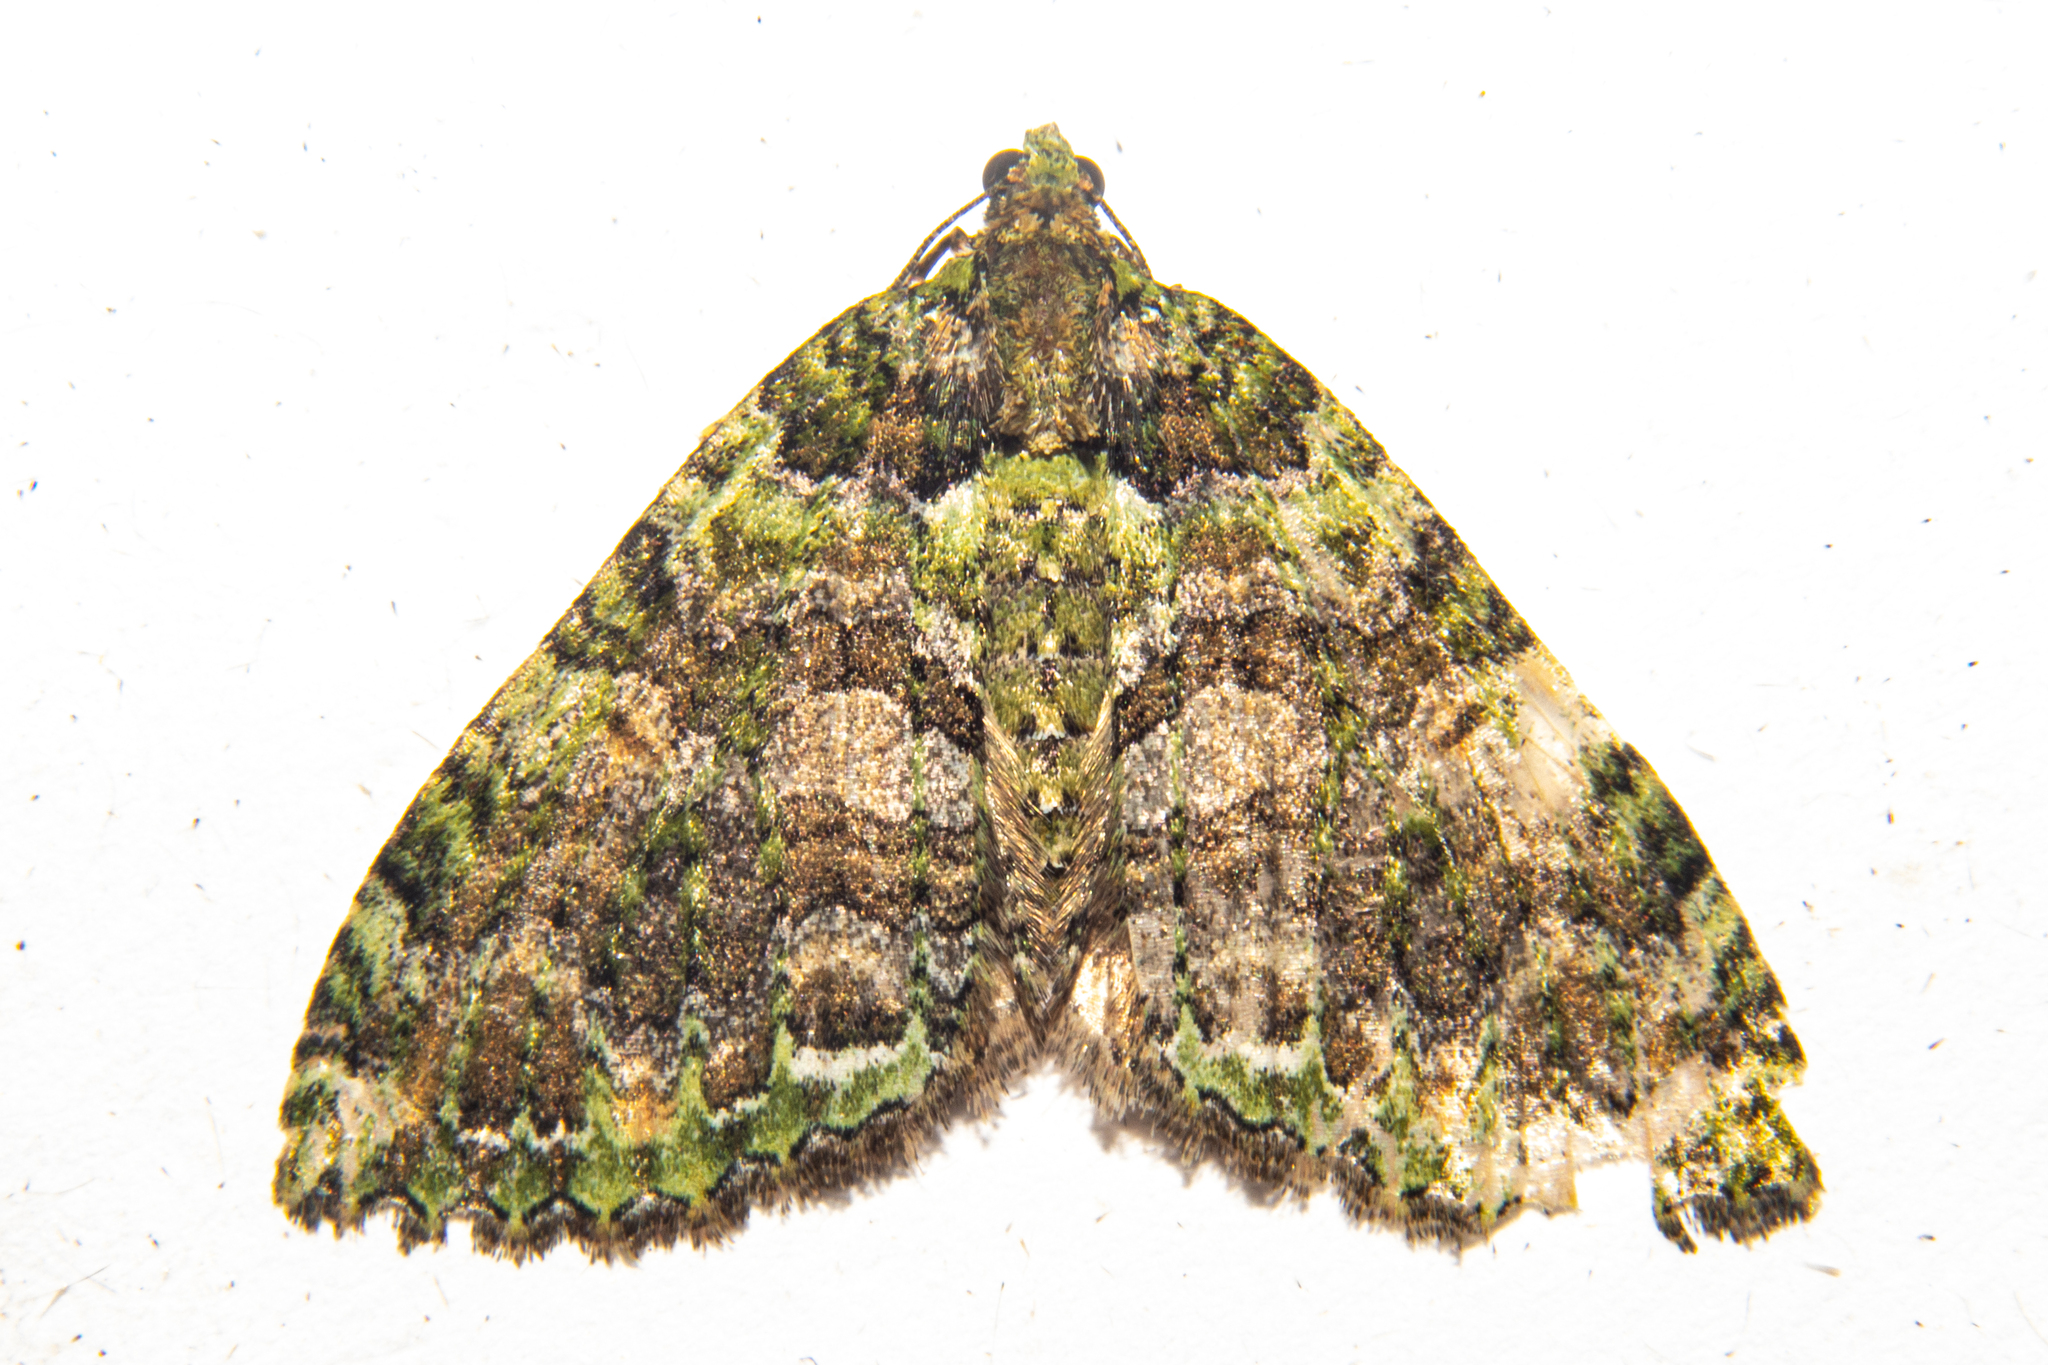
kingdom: Animalia
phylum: Arthropoda
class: Insecta
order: Lepidoptera
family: Geometridae
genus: Austrocidaria
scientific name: Austrocidaria similata
